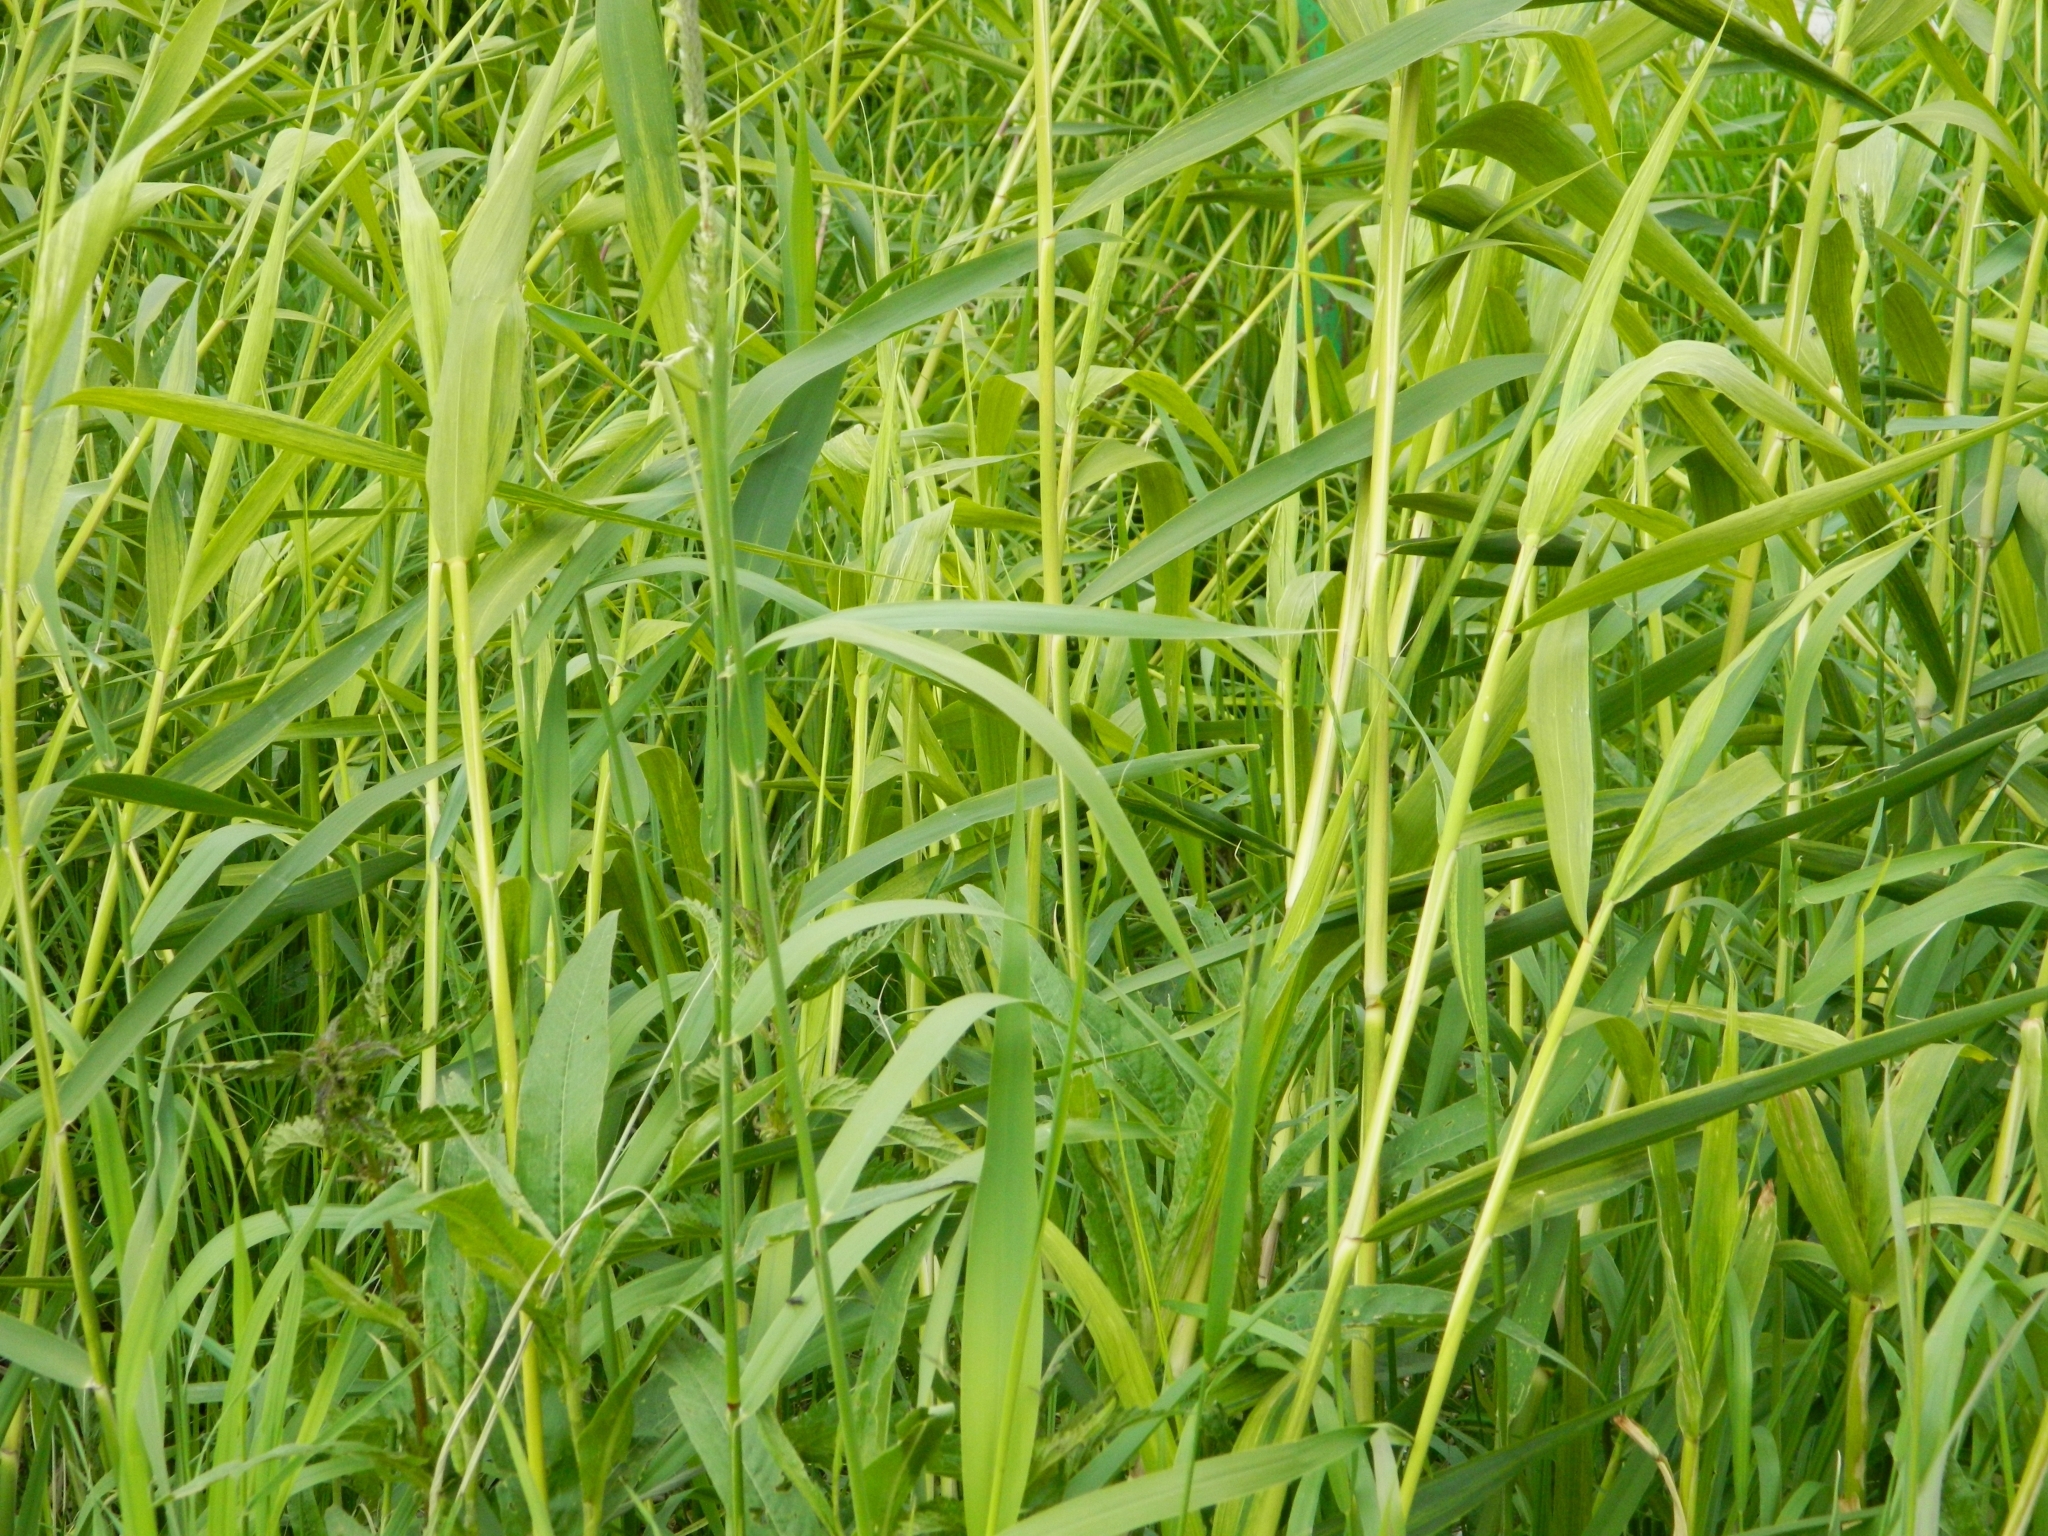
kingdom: Plantae
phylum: Tracheophyta
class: Liliopsida
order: Poales
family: Poaceae
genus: Phragmites
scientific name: Phragmites australis
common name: Common reed
